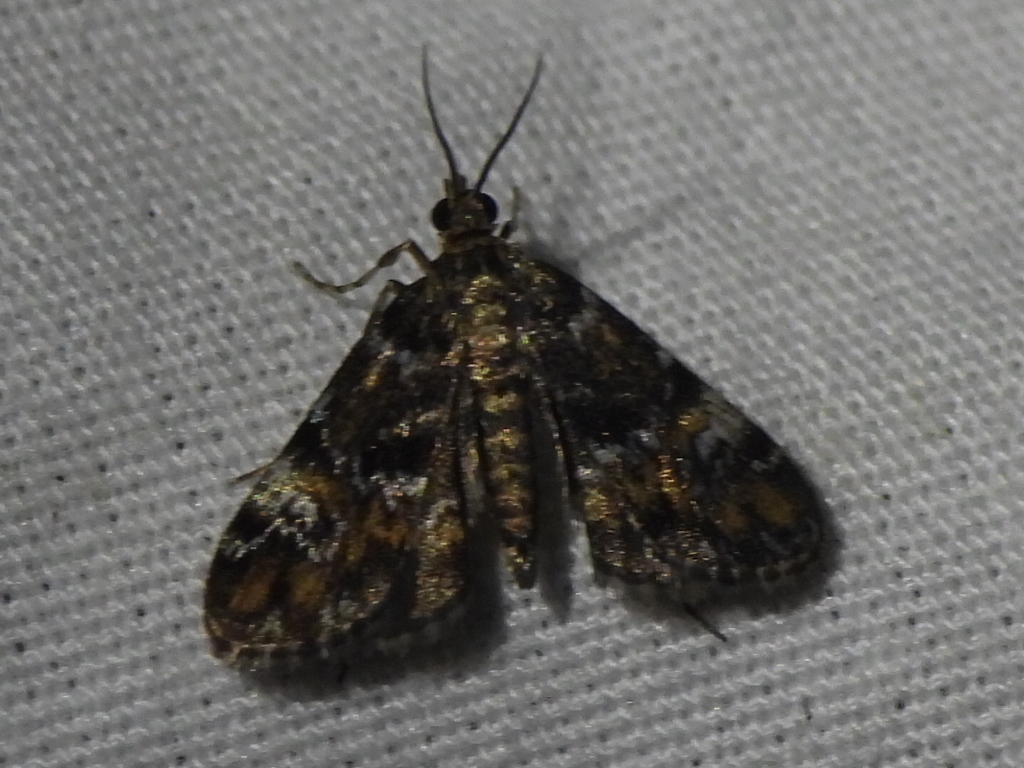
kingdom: Animalia
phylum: Arthropoda
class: Insecta
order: Lepidoptera
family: Crambidae
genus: Elophila
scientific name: Elophila obliteralis
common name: Waterlily leafcutter moth
